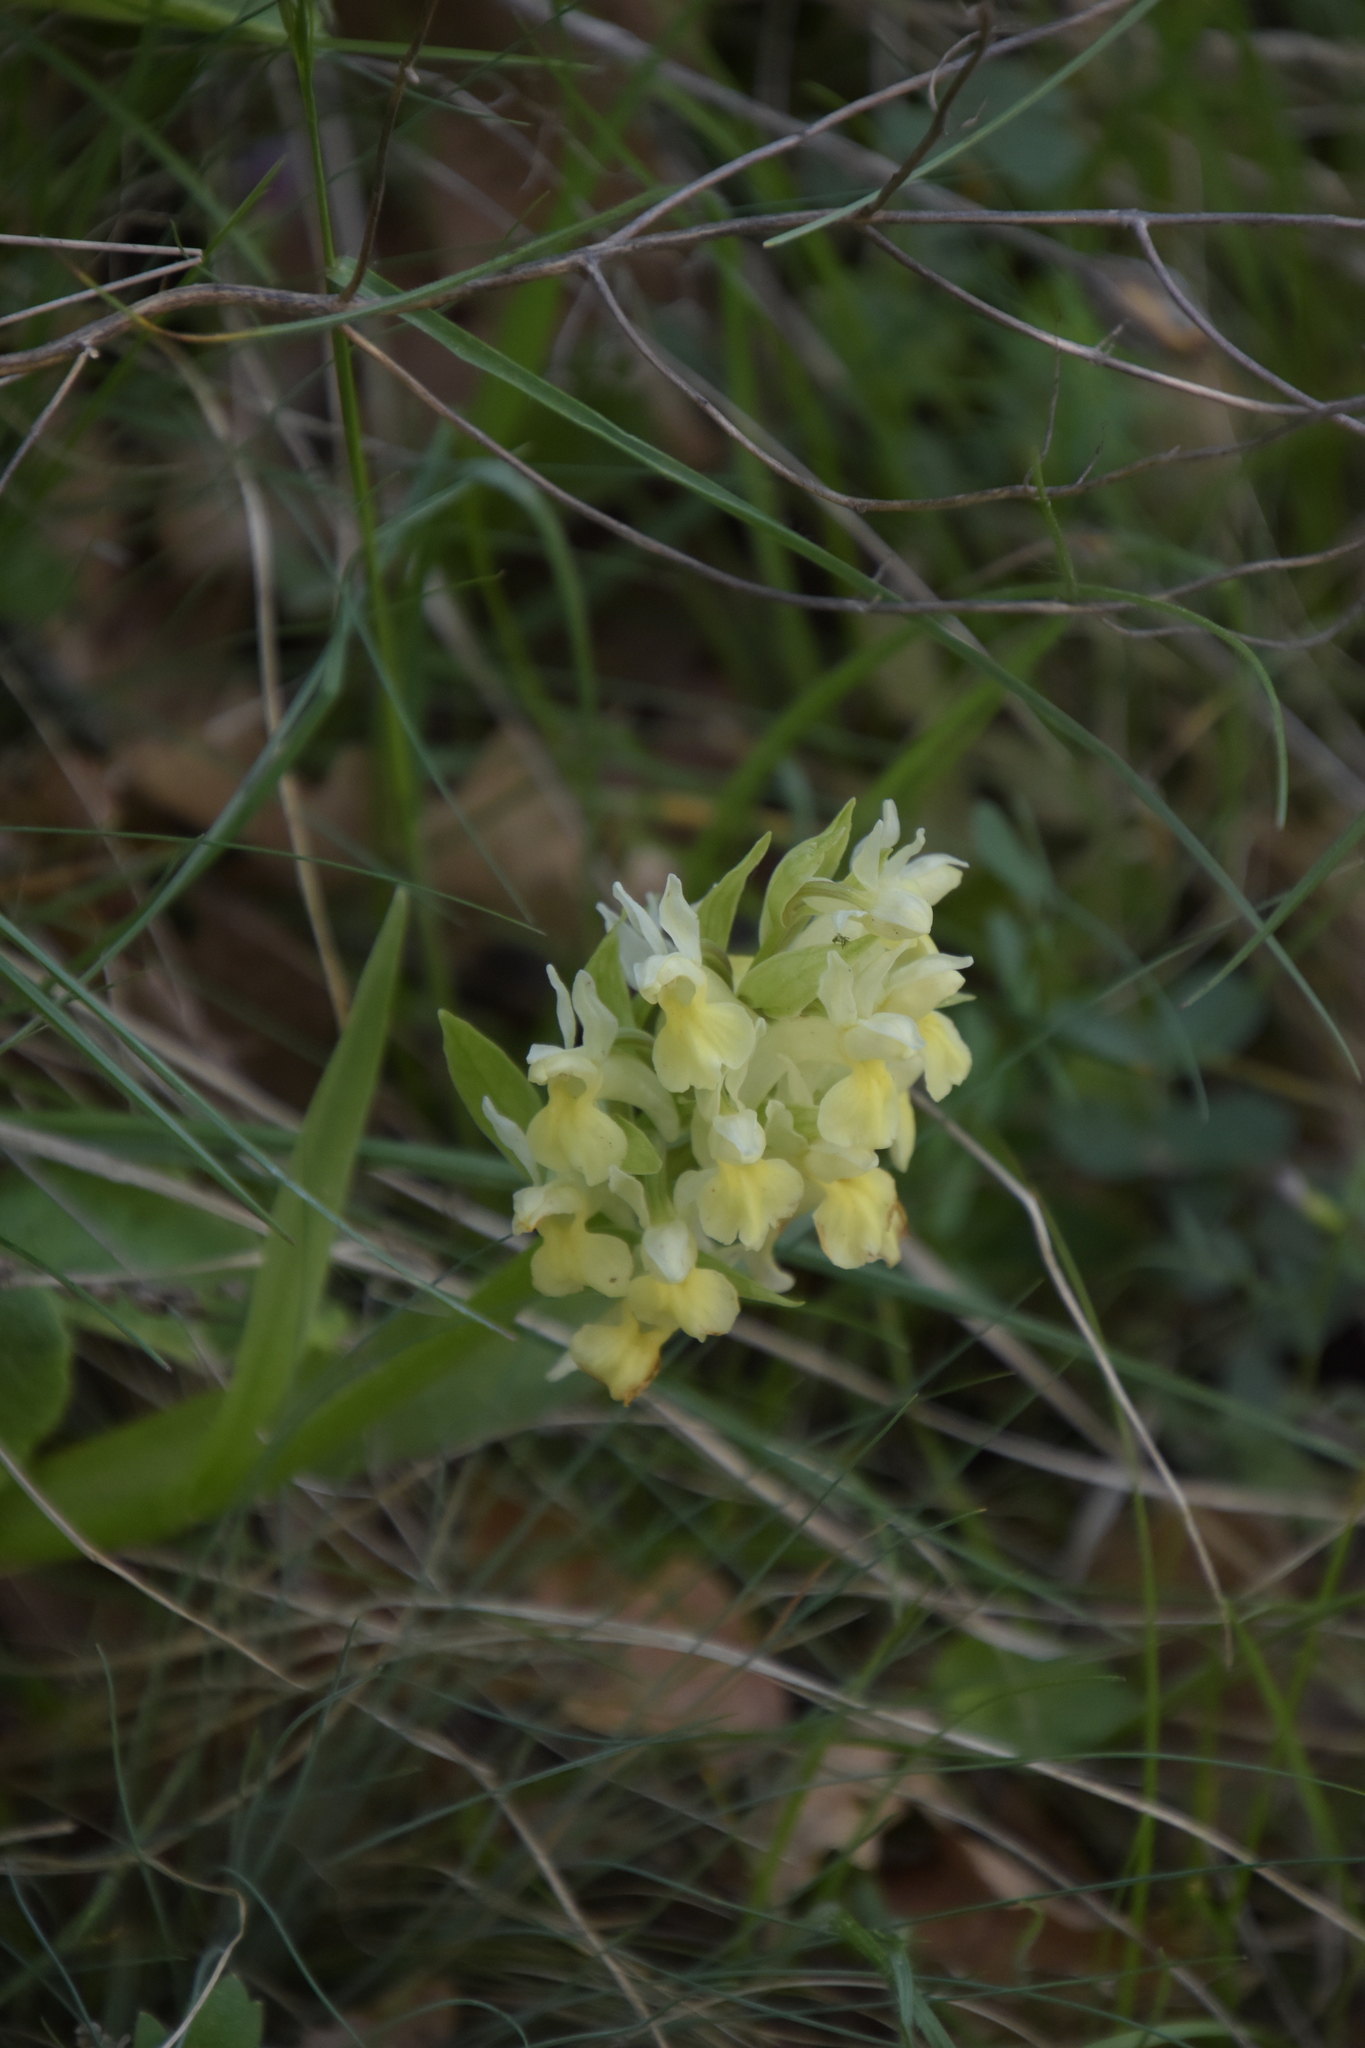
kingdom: Plantae
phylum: Tracheophyta
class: Liliopsida
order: Asparagales
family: Orchidaceae
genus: Dactylorhiza
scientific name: Dactylorhiza sambucina
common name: Elder-flowered orchid
